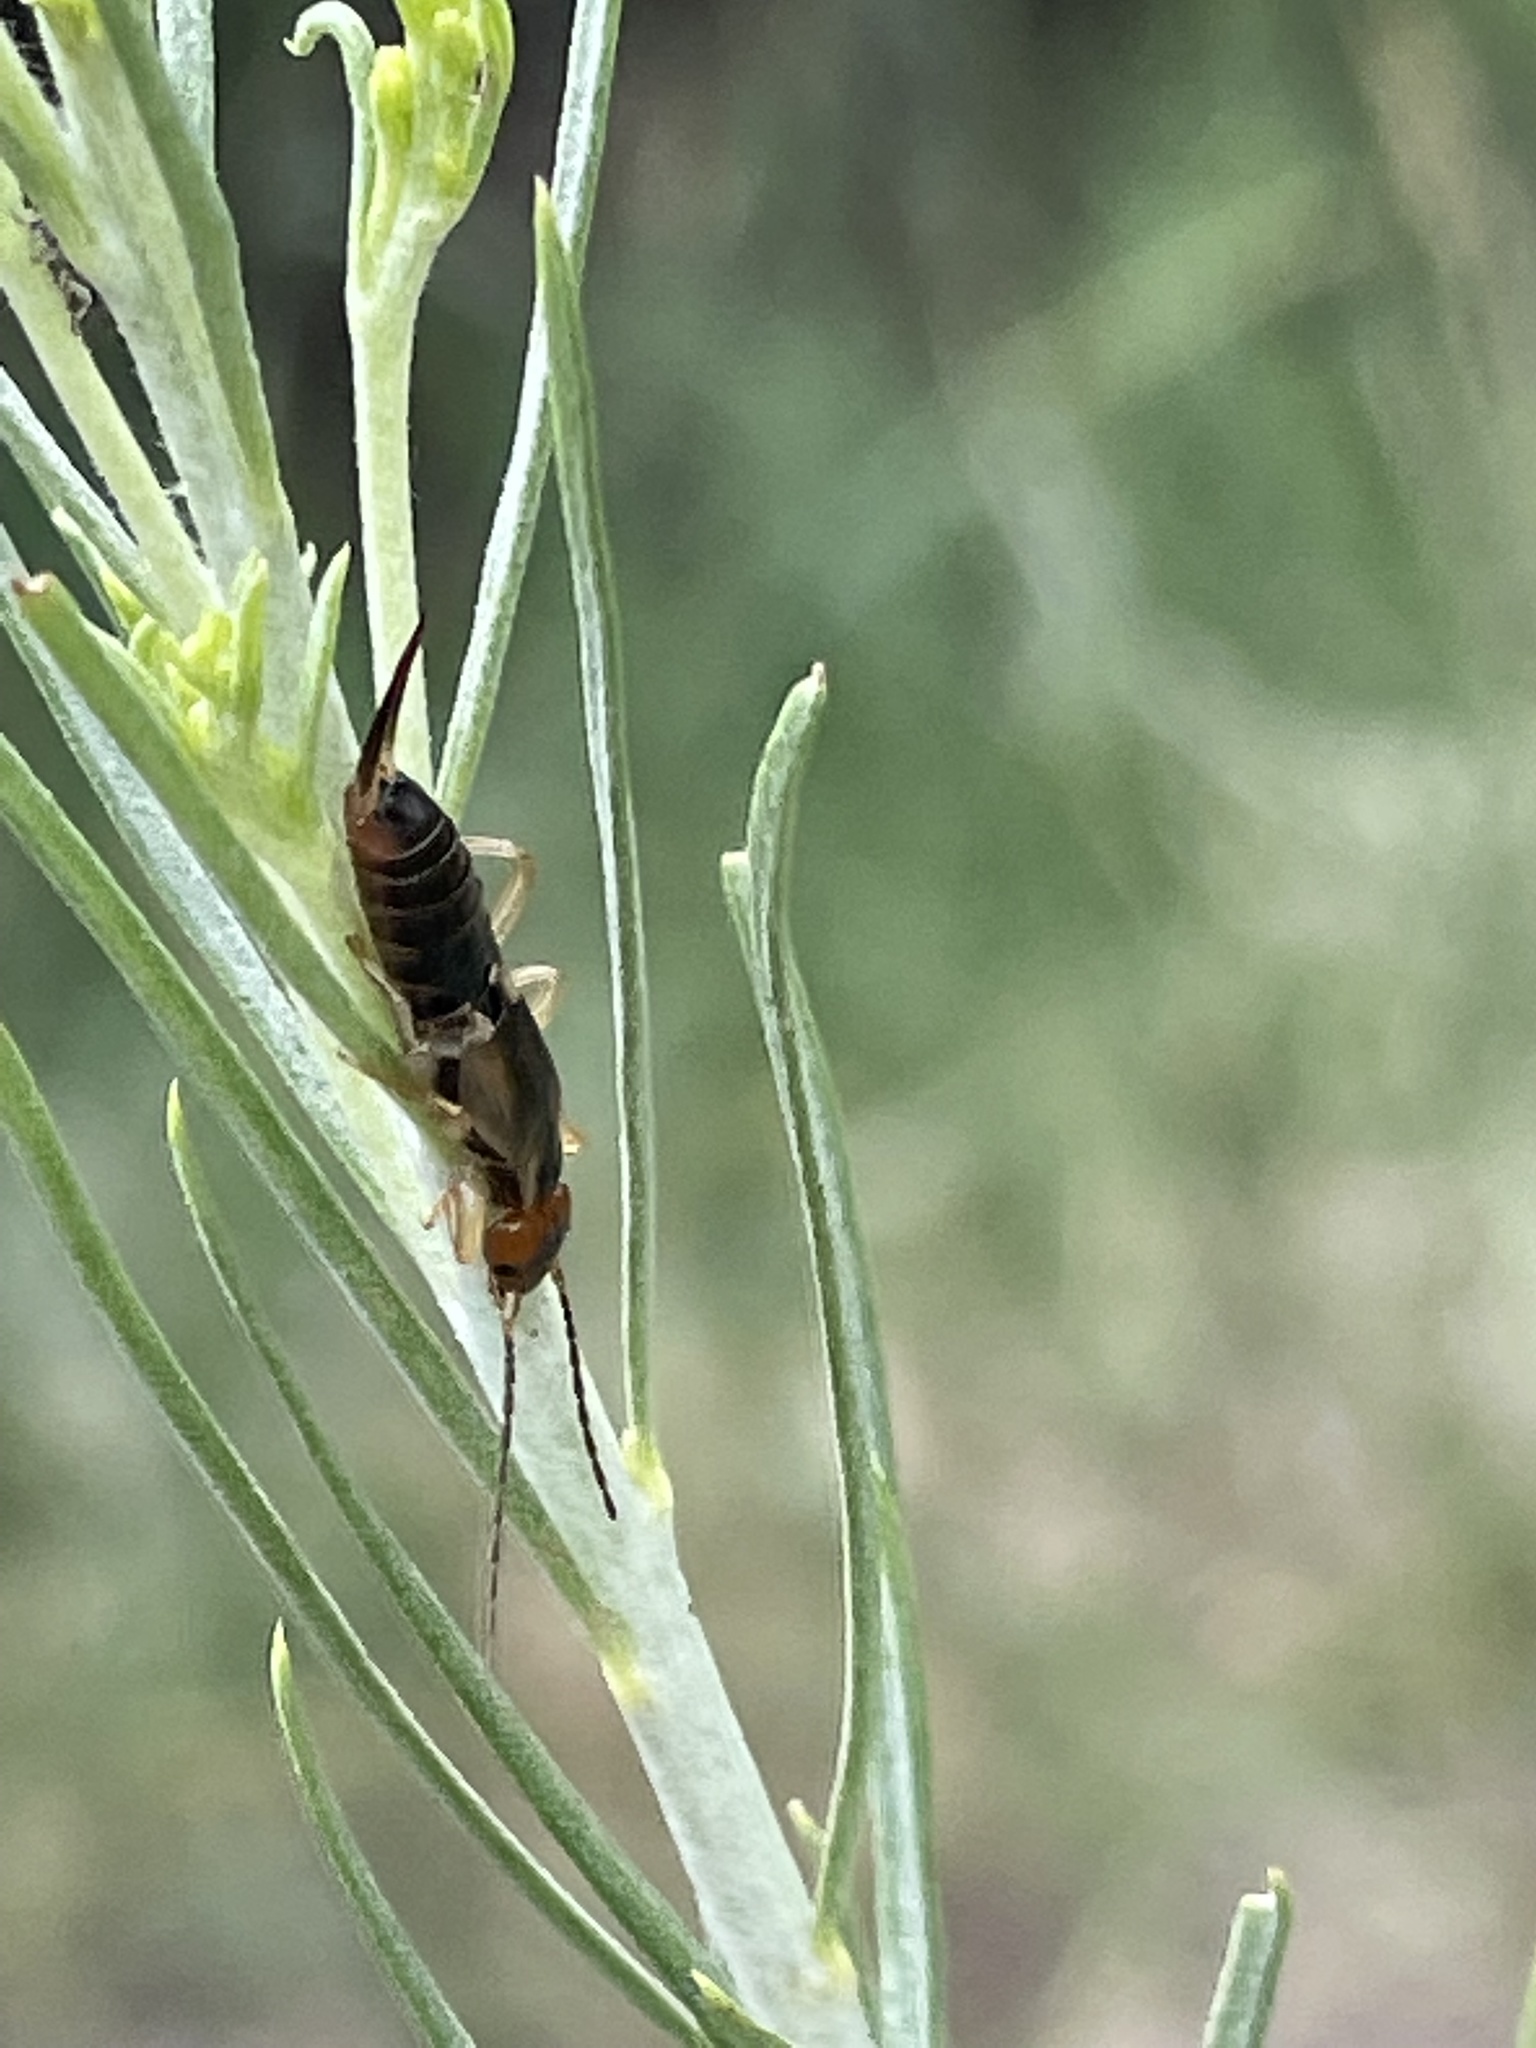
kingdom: Animalia
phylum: Arthropoda
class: Insecta
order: Dermaptera
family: Forficulidae
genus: Forficula
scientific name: Forficula
